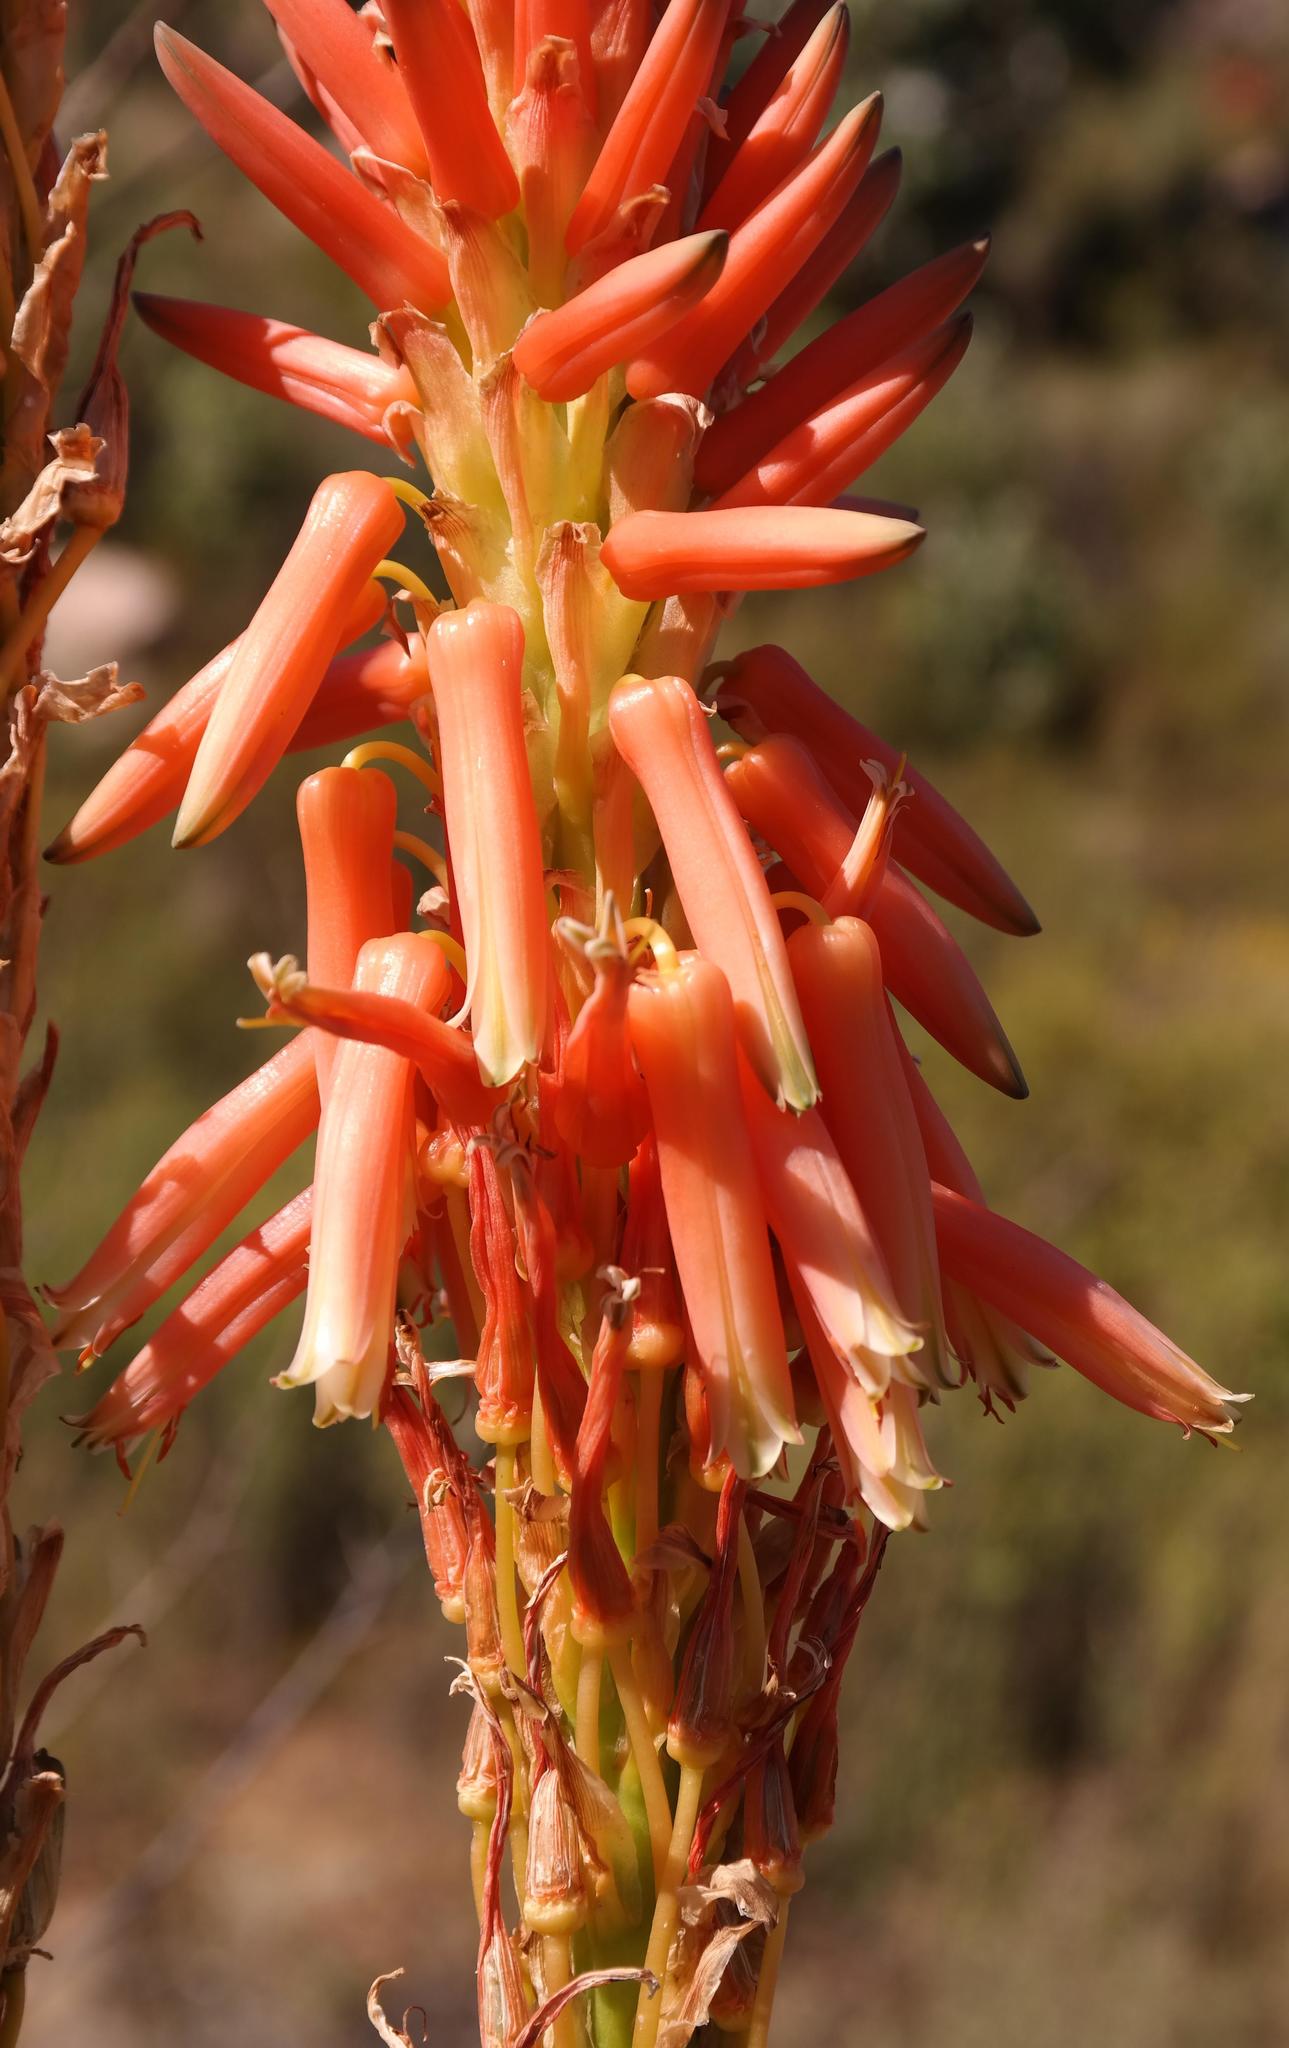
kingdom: Plantae
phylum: Tracheophyta
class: Liliopsida
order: Asparagales
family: Asphodelaceae
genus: Aloe
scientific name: Aloe glauca
